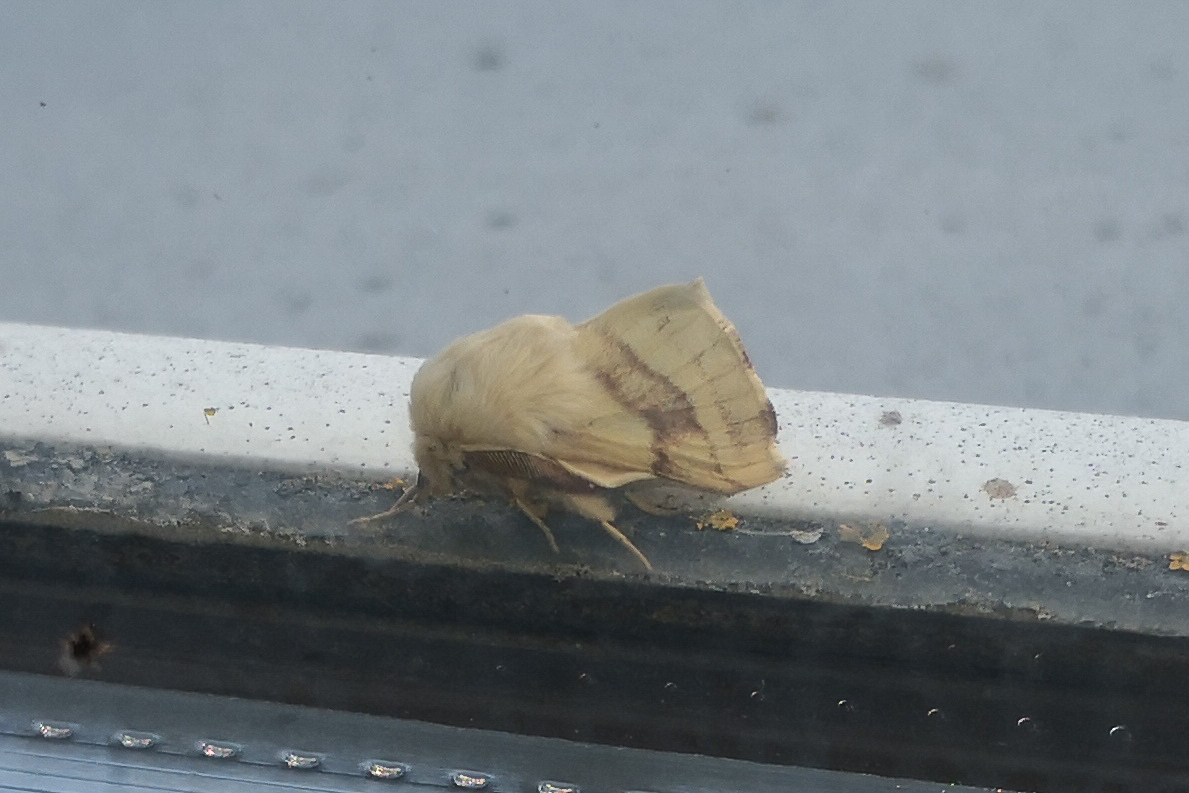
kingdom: Animalia
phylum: Arthropoda
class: Insecta
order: Lepidoptera
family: Lasiocampidae
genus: Malacosoma
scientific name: Malacosoma castrense
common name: Ground lackey
